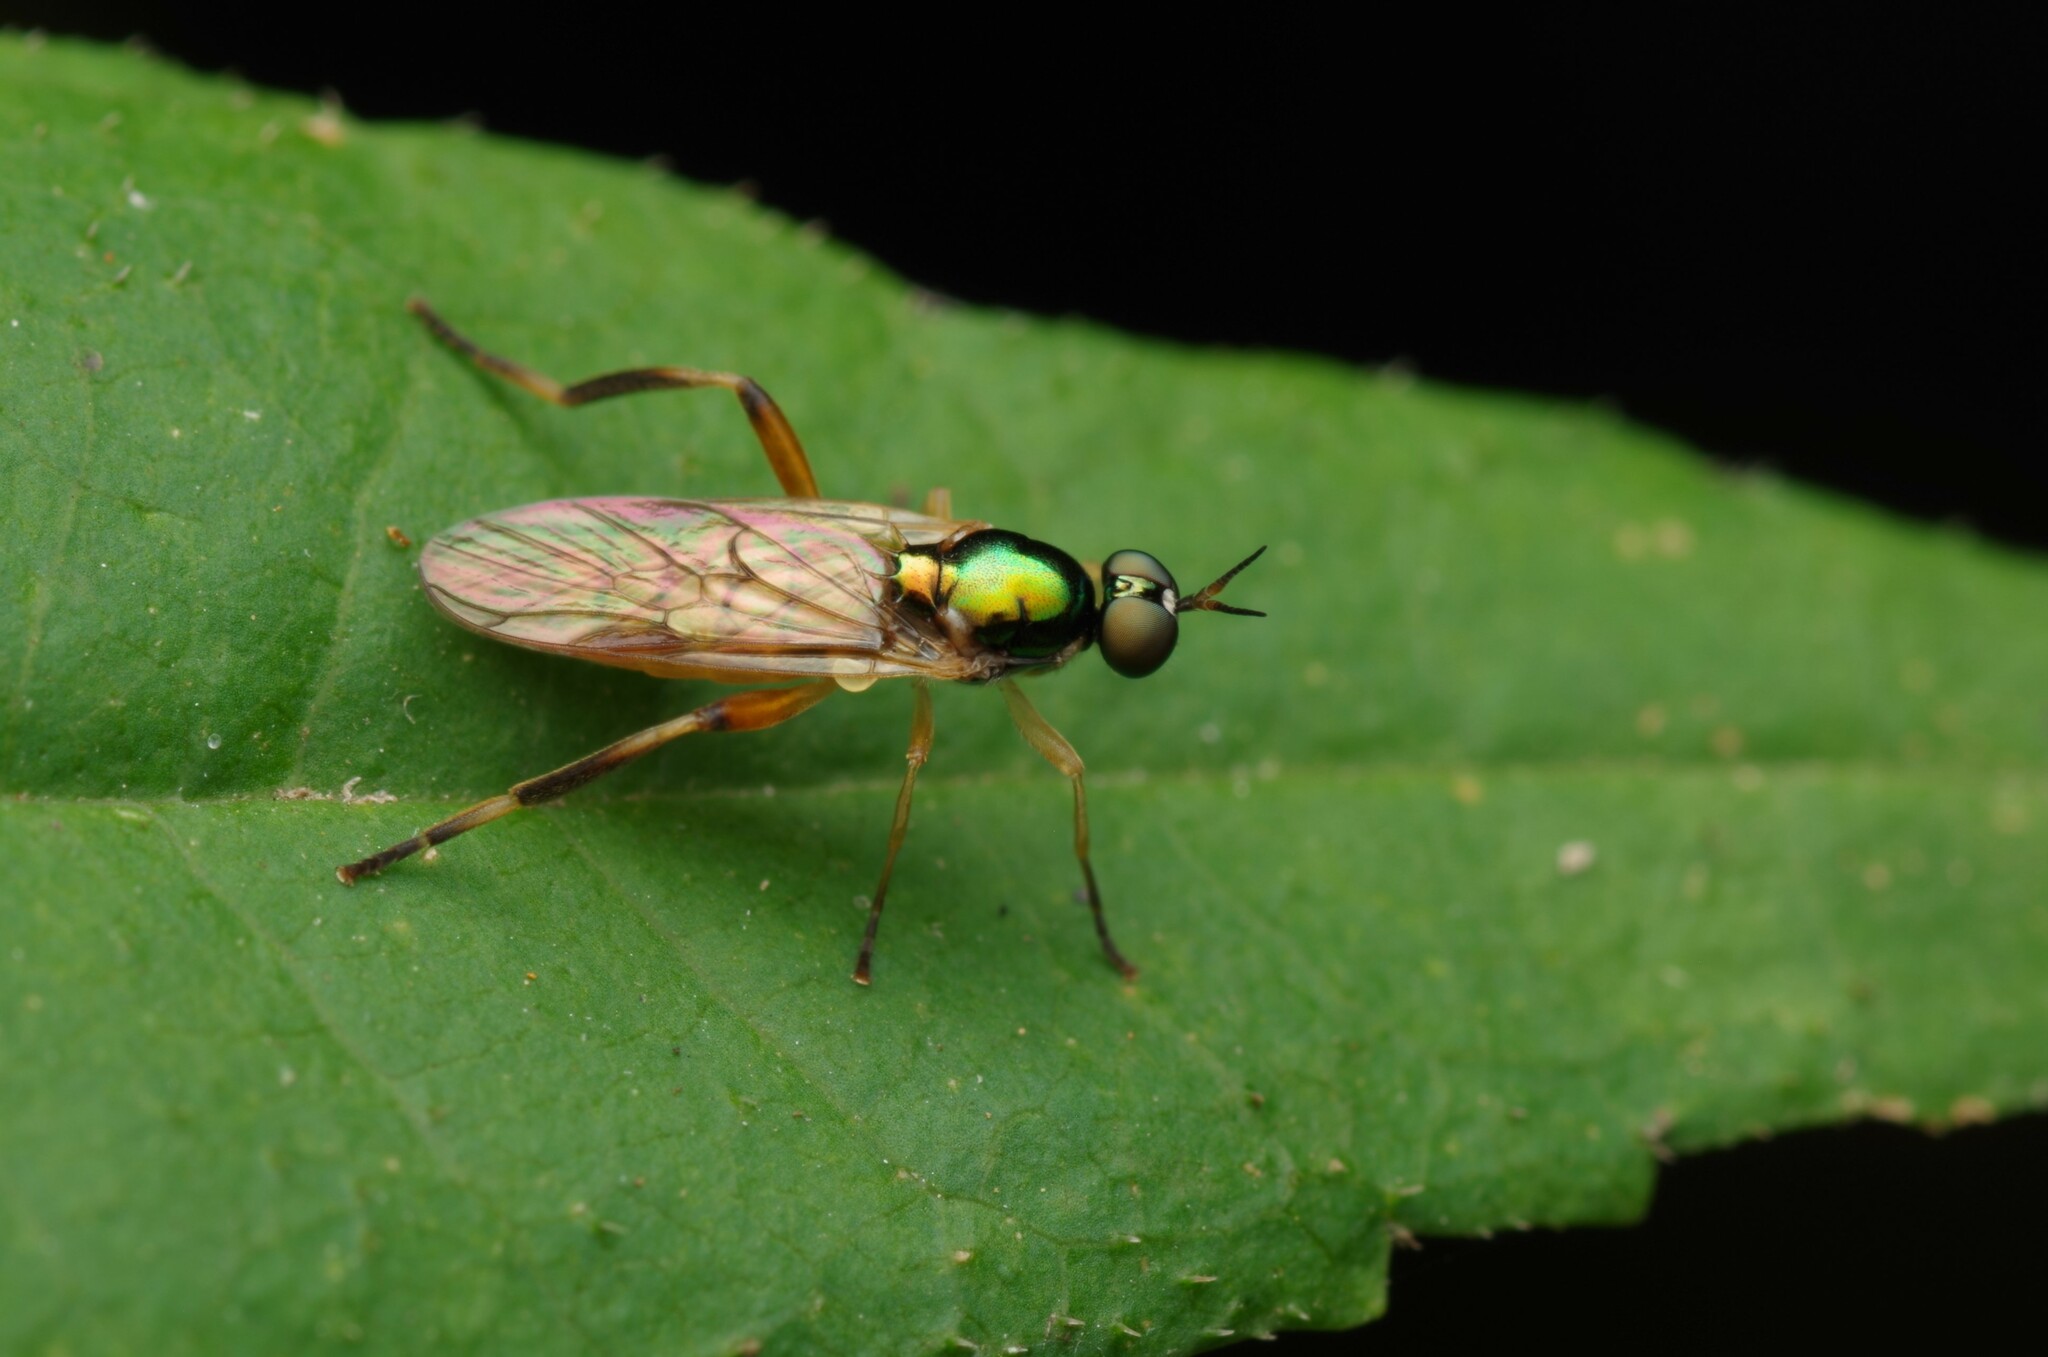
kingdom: Animalia
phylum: Arthropoda
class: Insecta
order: Diptera
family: Stratiomyidae
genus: Chorisops
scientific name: Chorisops nagatomii
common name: Bright four-spined legionnaire
